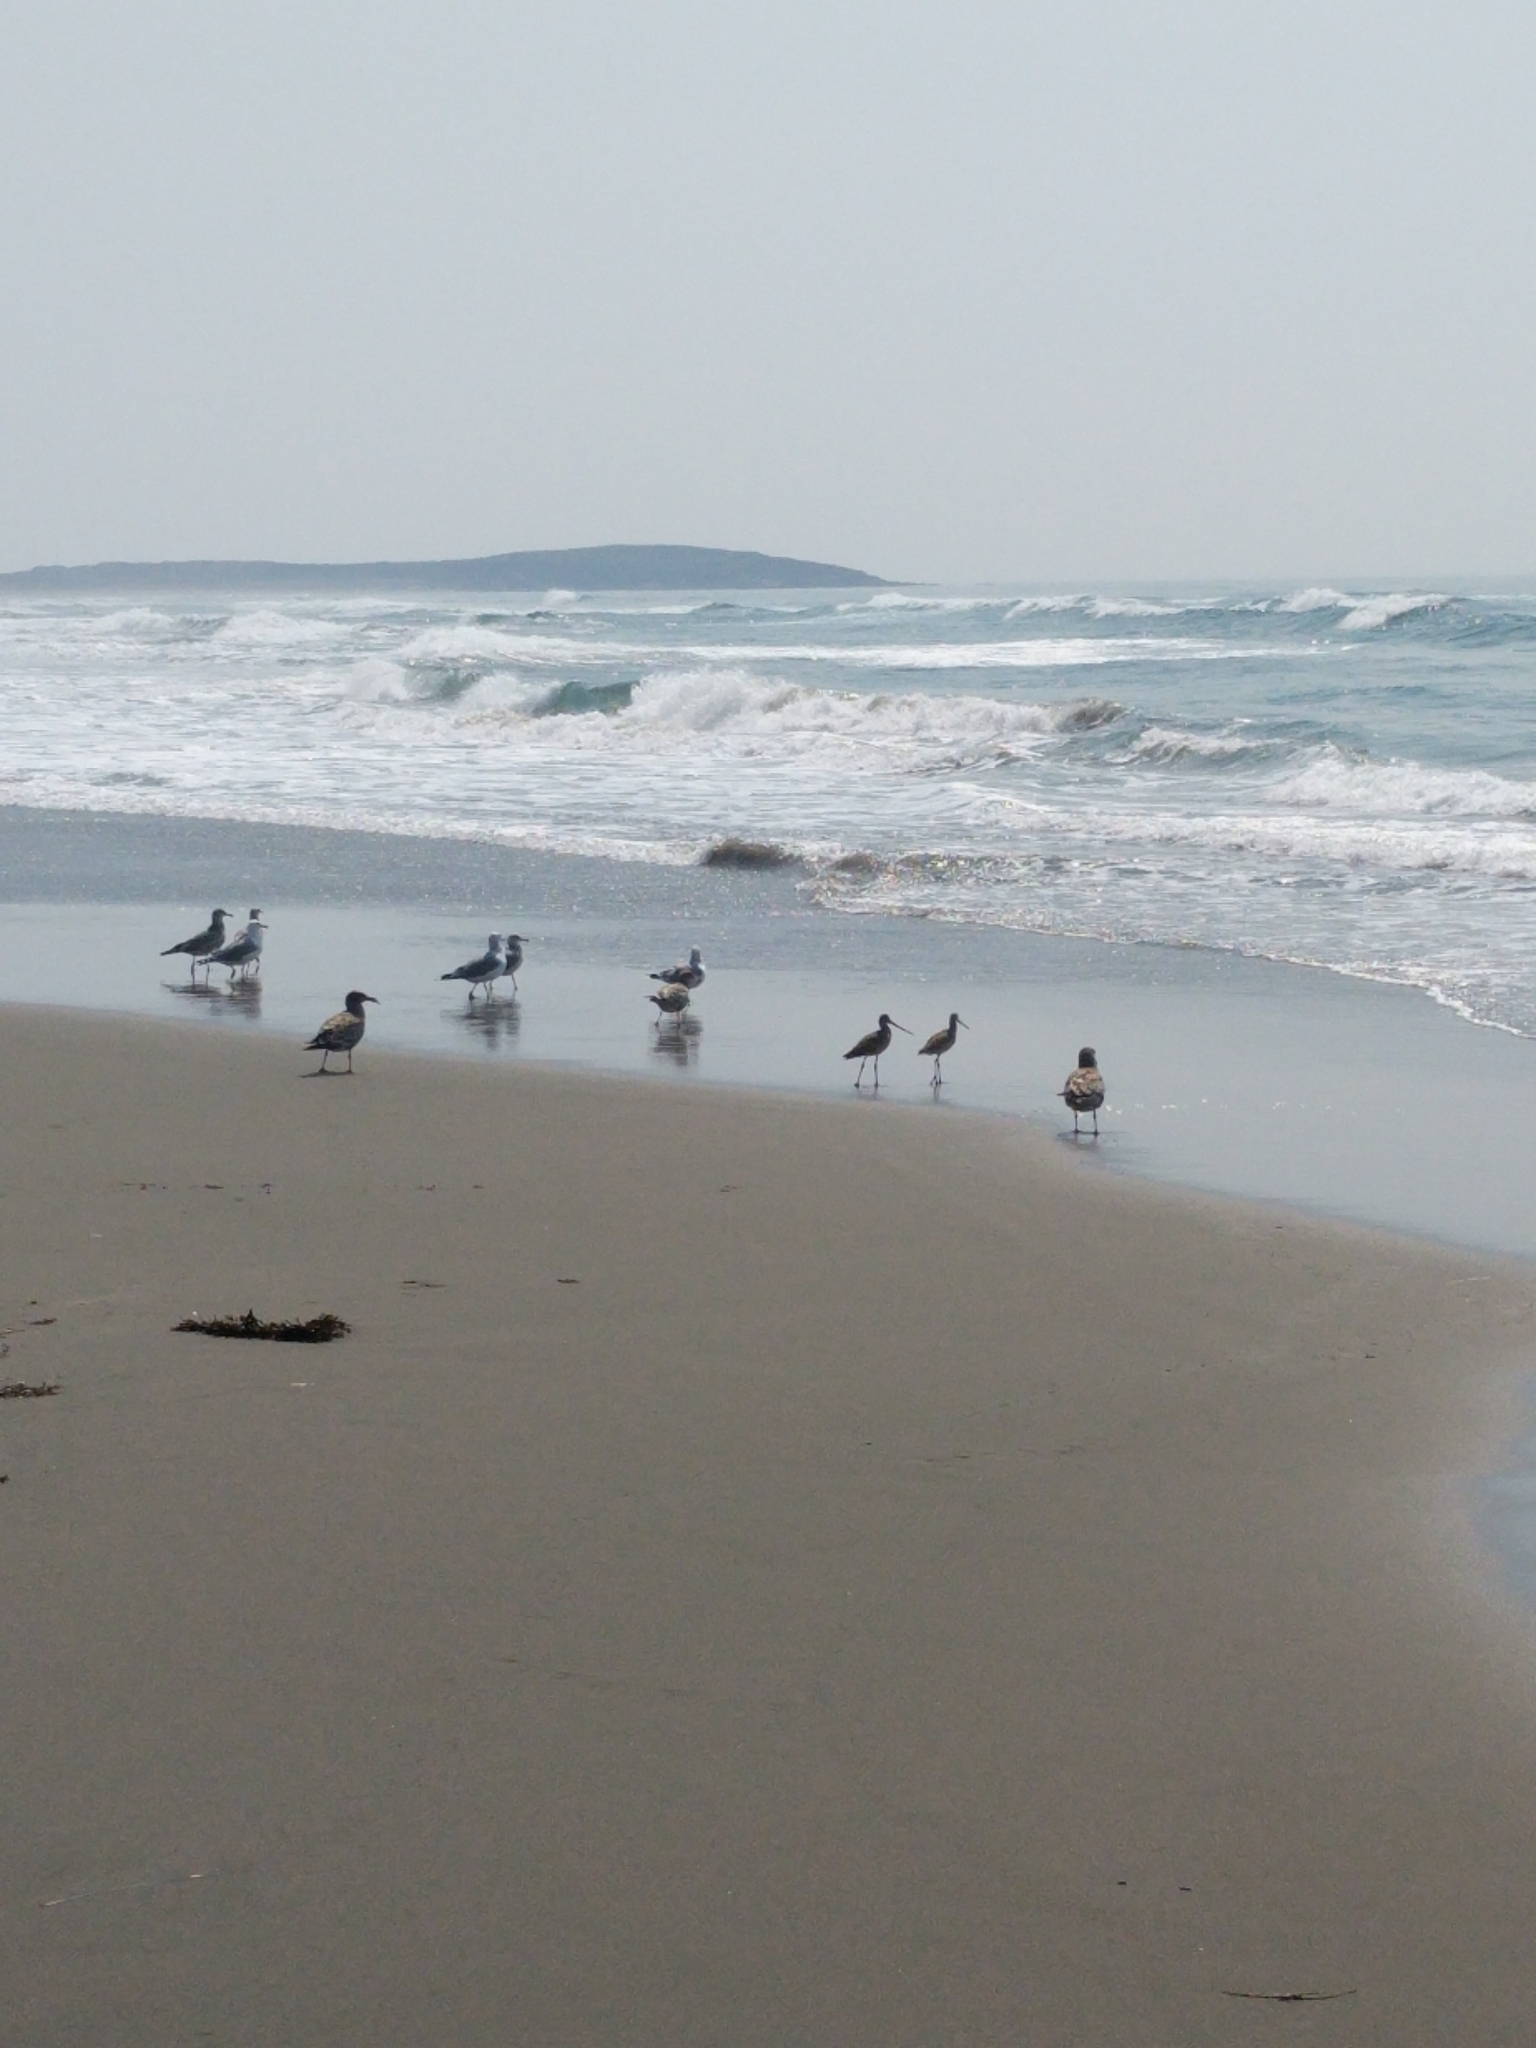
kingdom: Animalia
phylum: Chordata
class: Aves
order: Charadriiformes
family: Scolopacidae
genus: Limosa
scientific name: Limosa fedoa
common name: Marbled godwit
